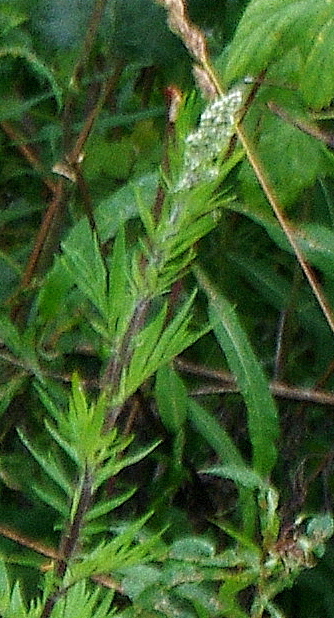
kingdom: Plantae
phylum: Tracheophyta
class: Magnoliopsida
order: Asterales
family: Asteraceae
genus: Artemisia
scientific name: Artemisia vulgaris
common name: Mugwort
